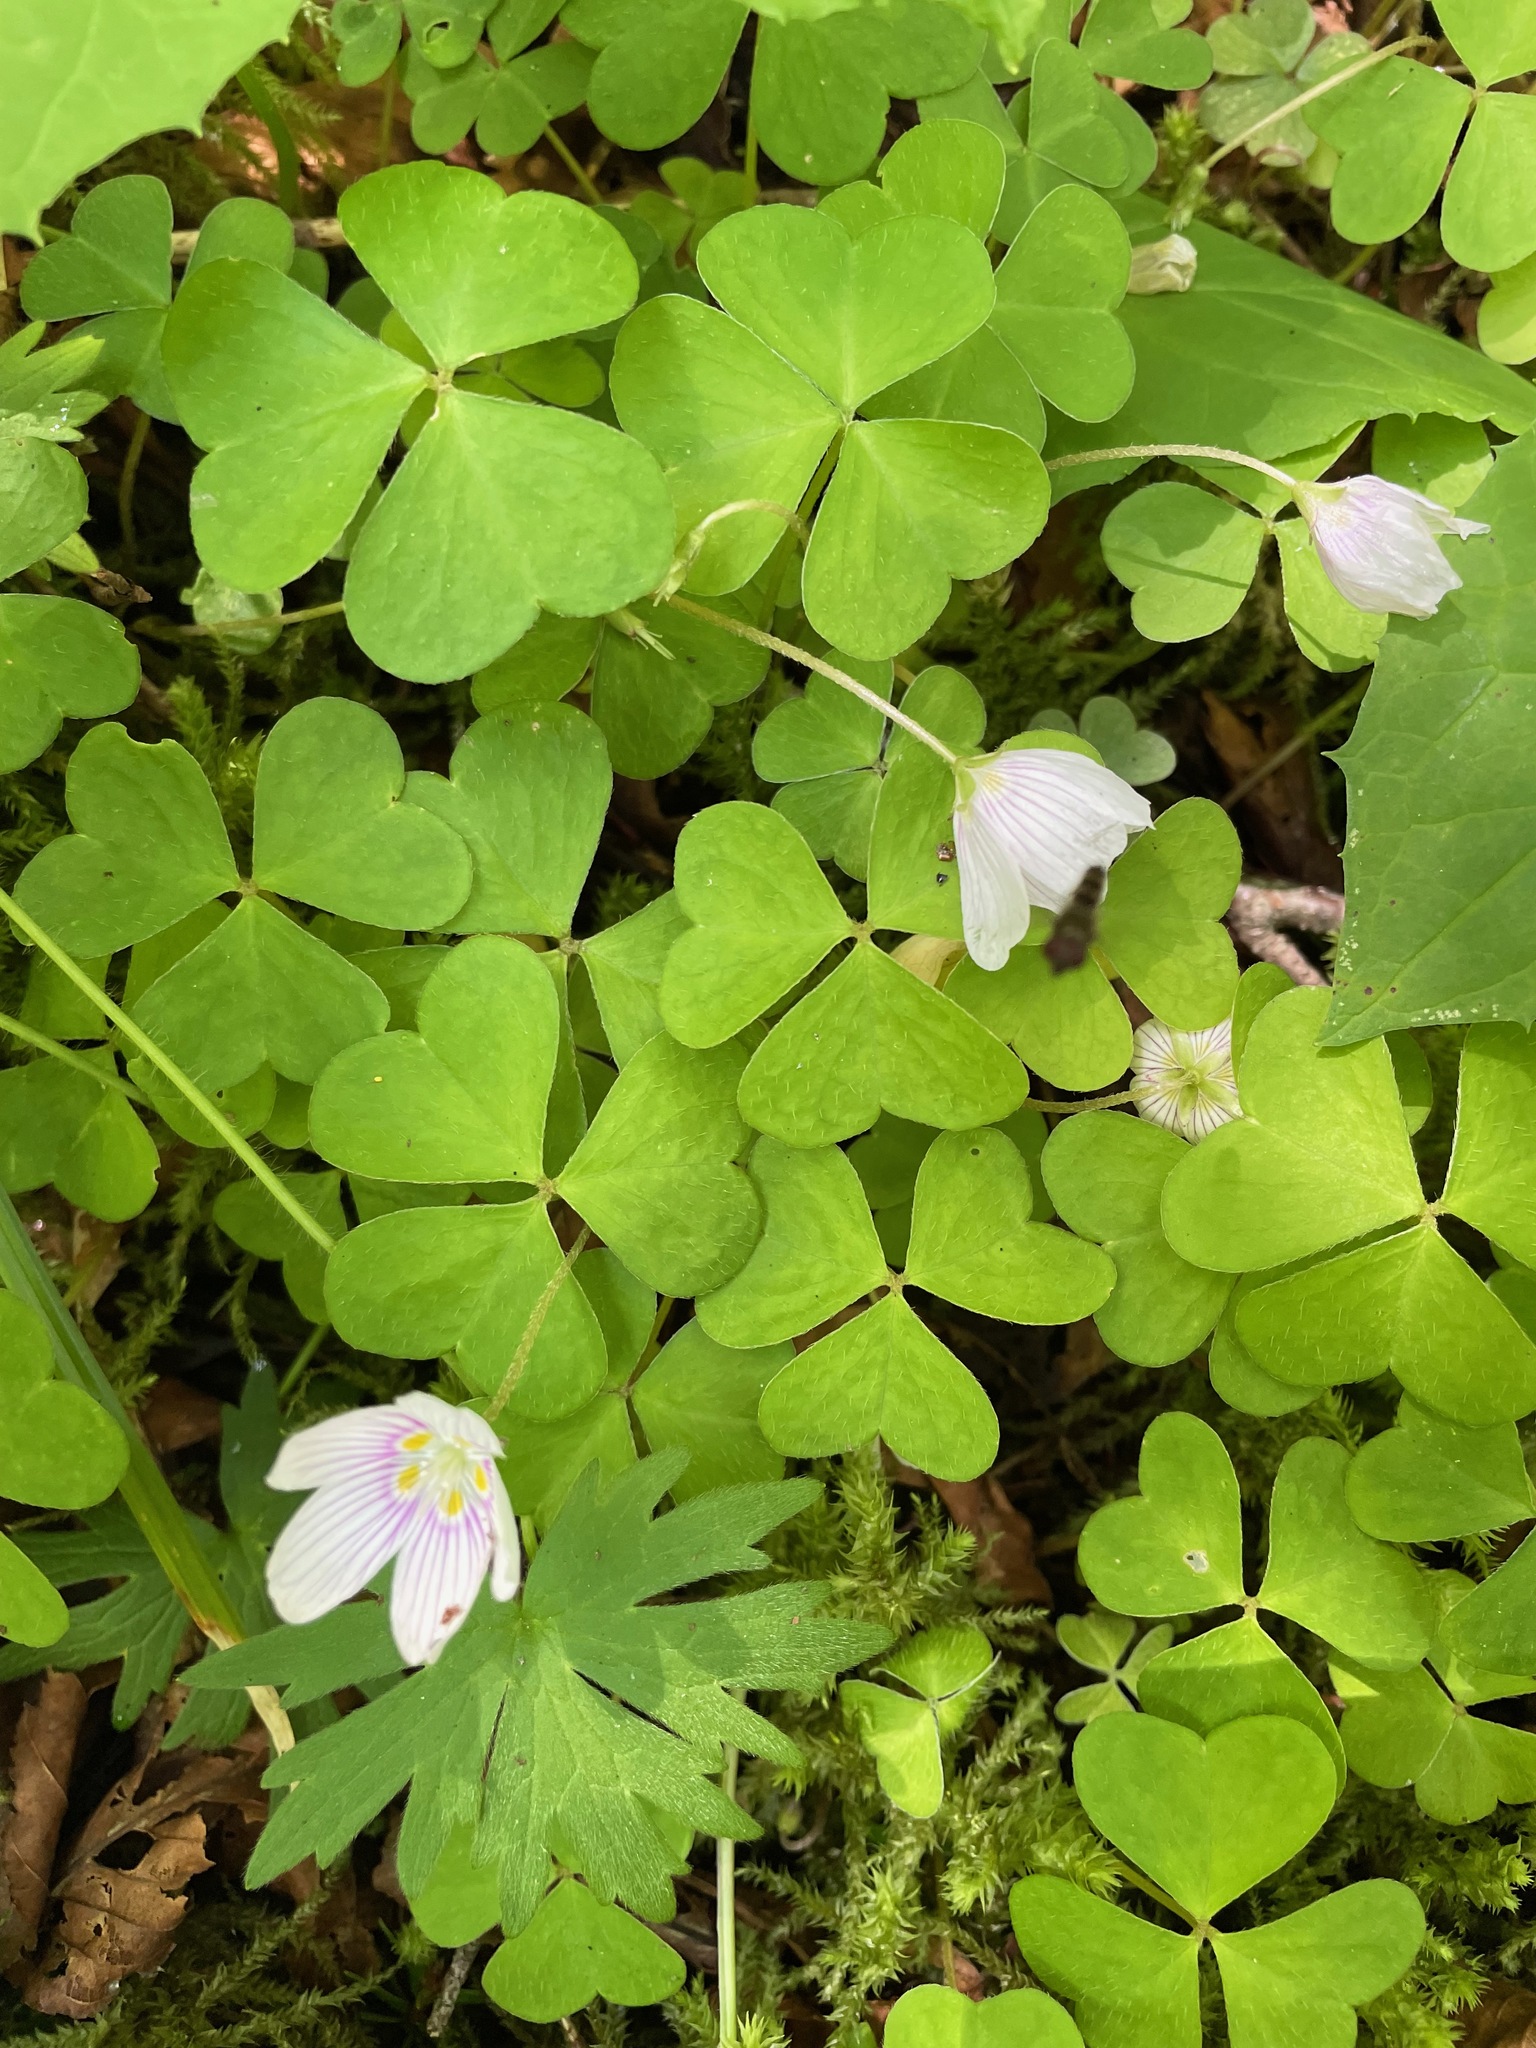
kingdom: Plantae
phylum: Tracheophyta
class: Magnoliopsida
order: Oxalidales
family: Oxalidaceae
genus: Oxalis
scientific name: Oxalis montana
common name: American wood-sorrel
